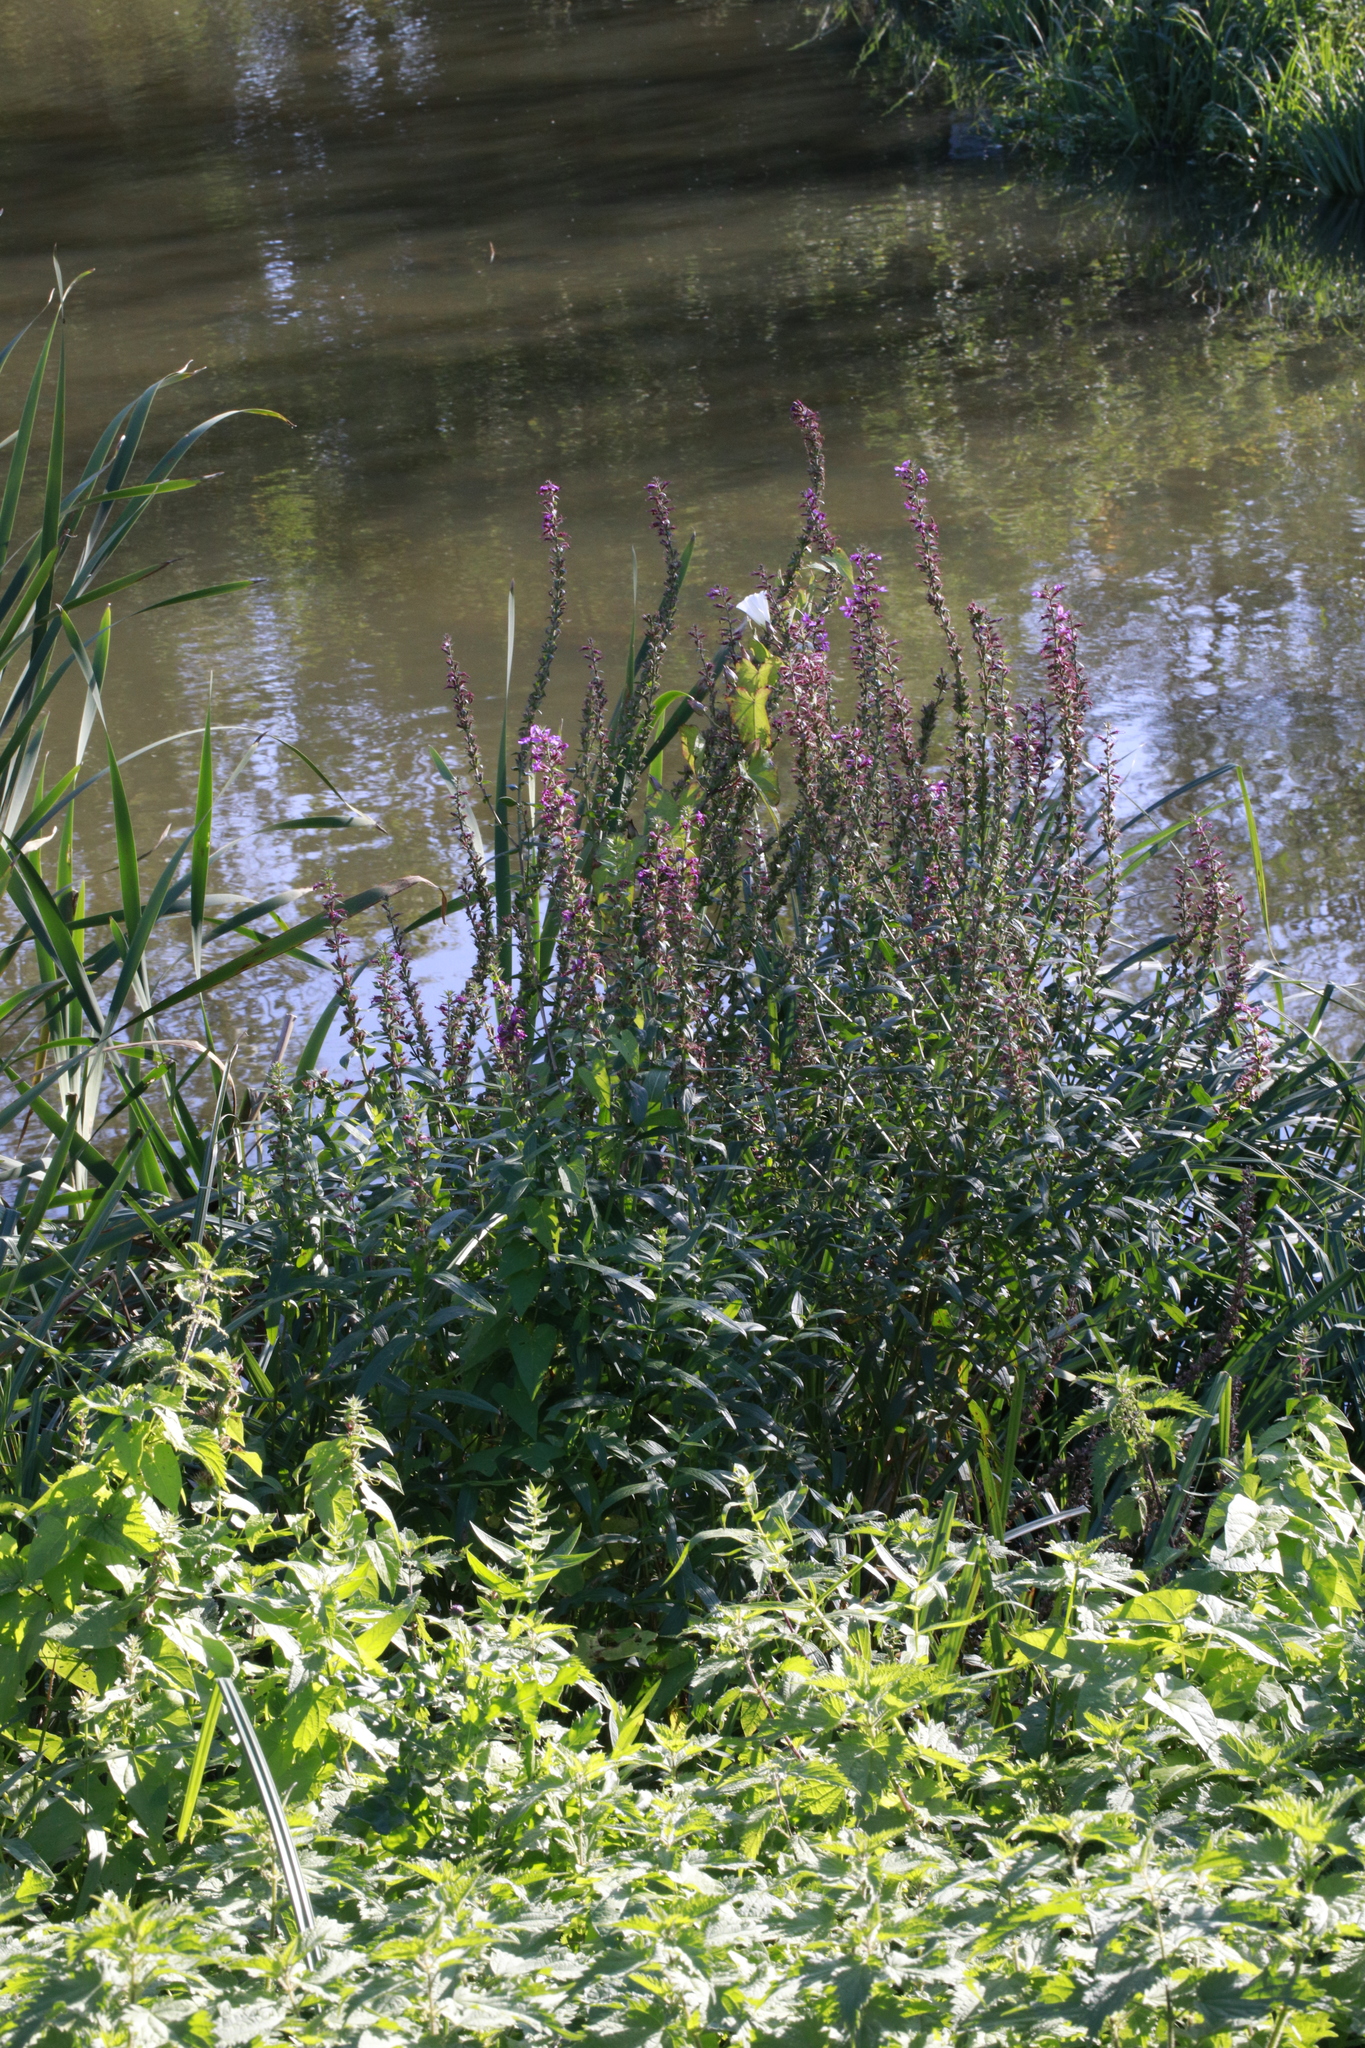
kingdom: Plantae
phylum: Tracheophyta
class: Magnoliopsida
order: Myrtales
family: Lythraceae
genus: Lythrum
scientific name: Lythrum salicaria
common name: Purple loosestrife
